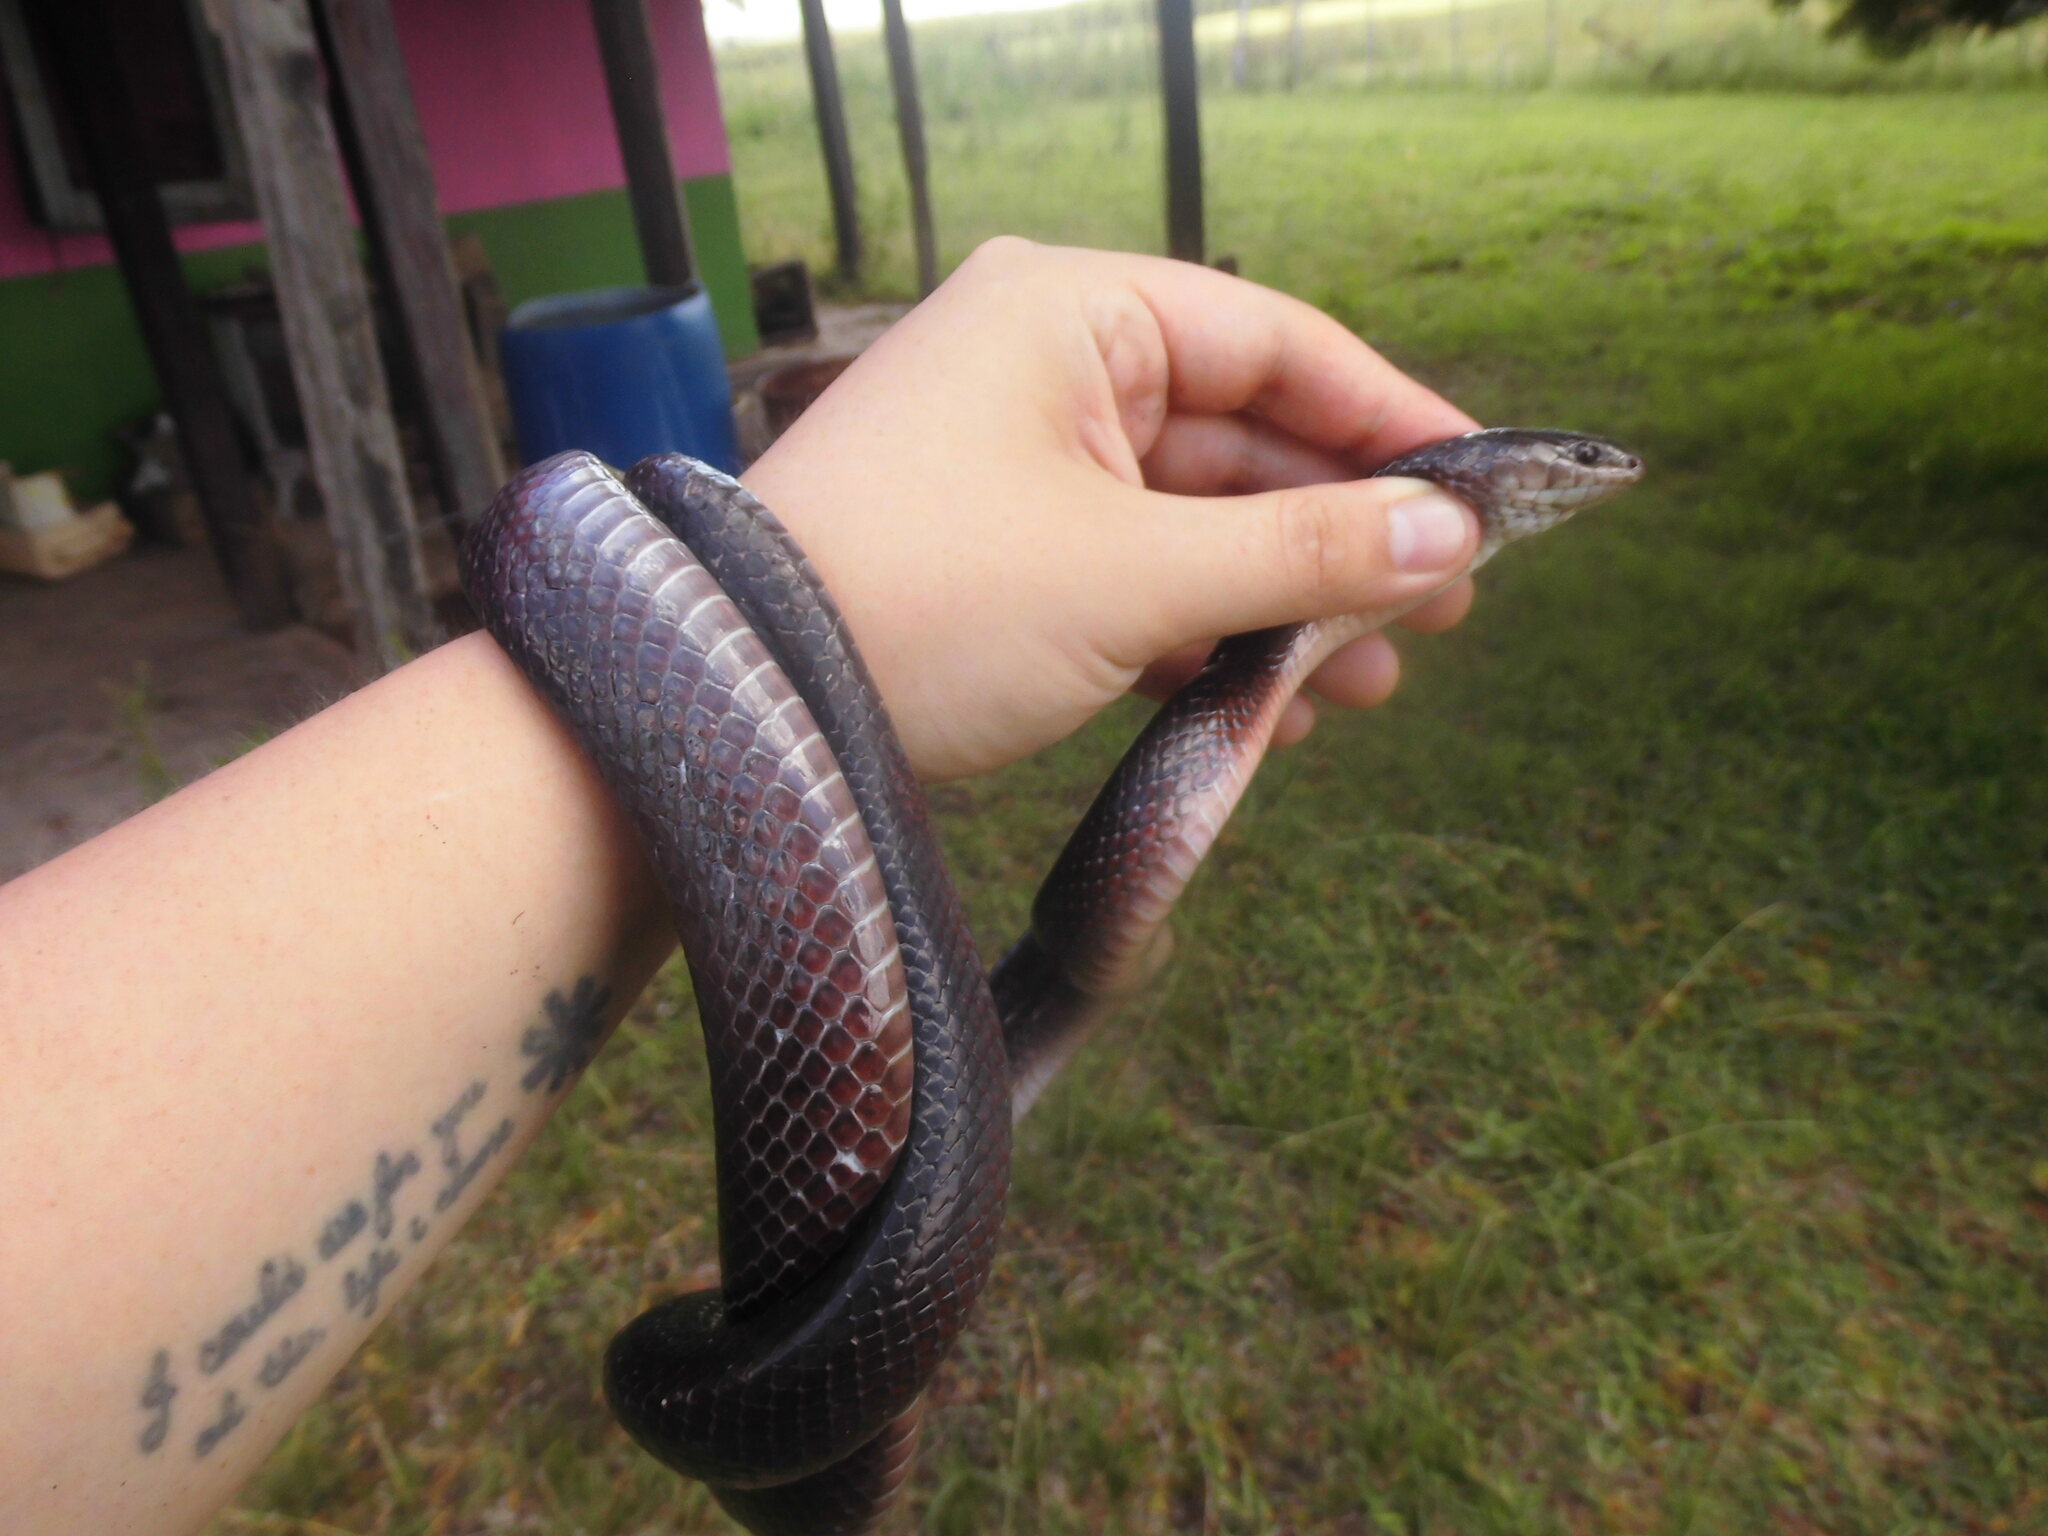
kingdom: Animalia
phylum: Chordata
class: Squamata
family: Colubridae
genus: Boiruna
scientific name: Boiruna maculata
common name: Mussurana
